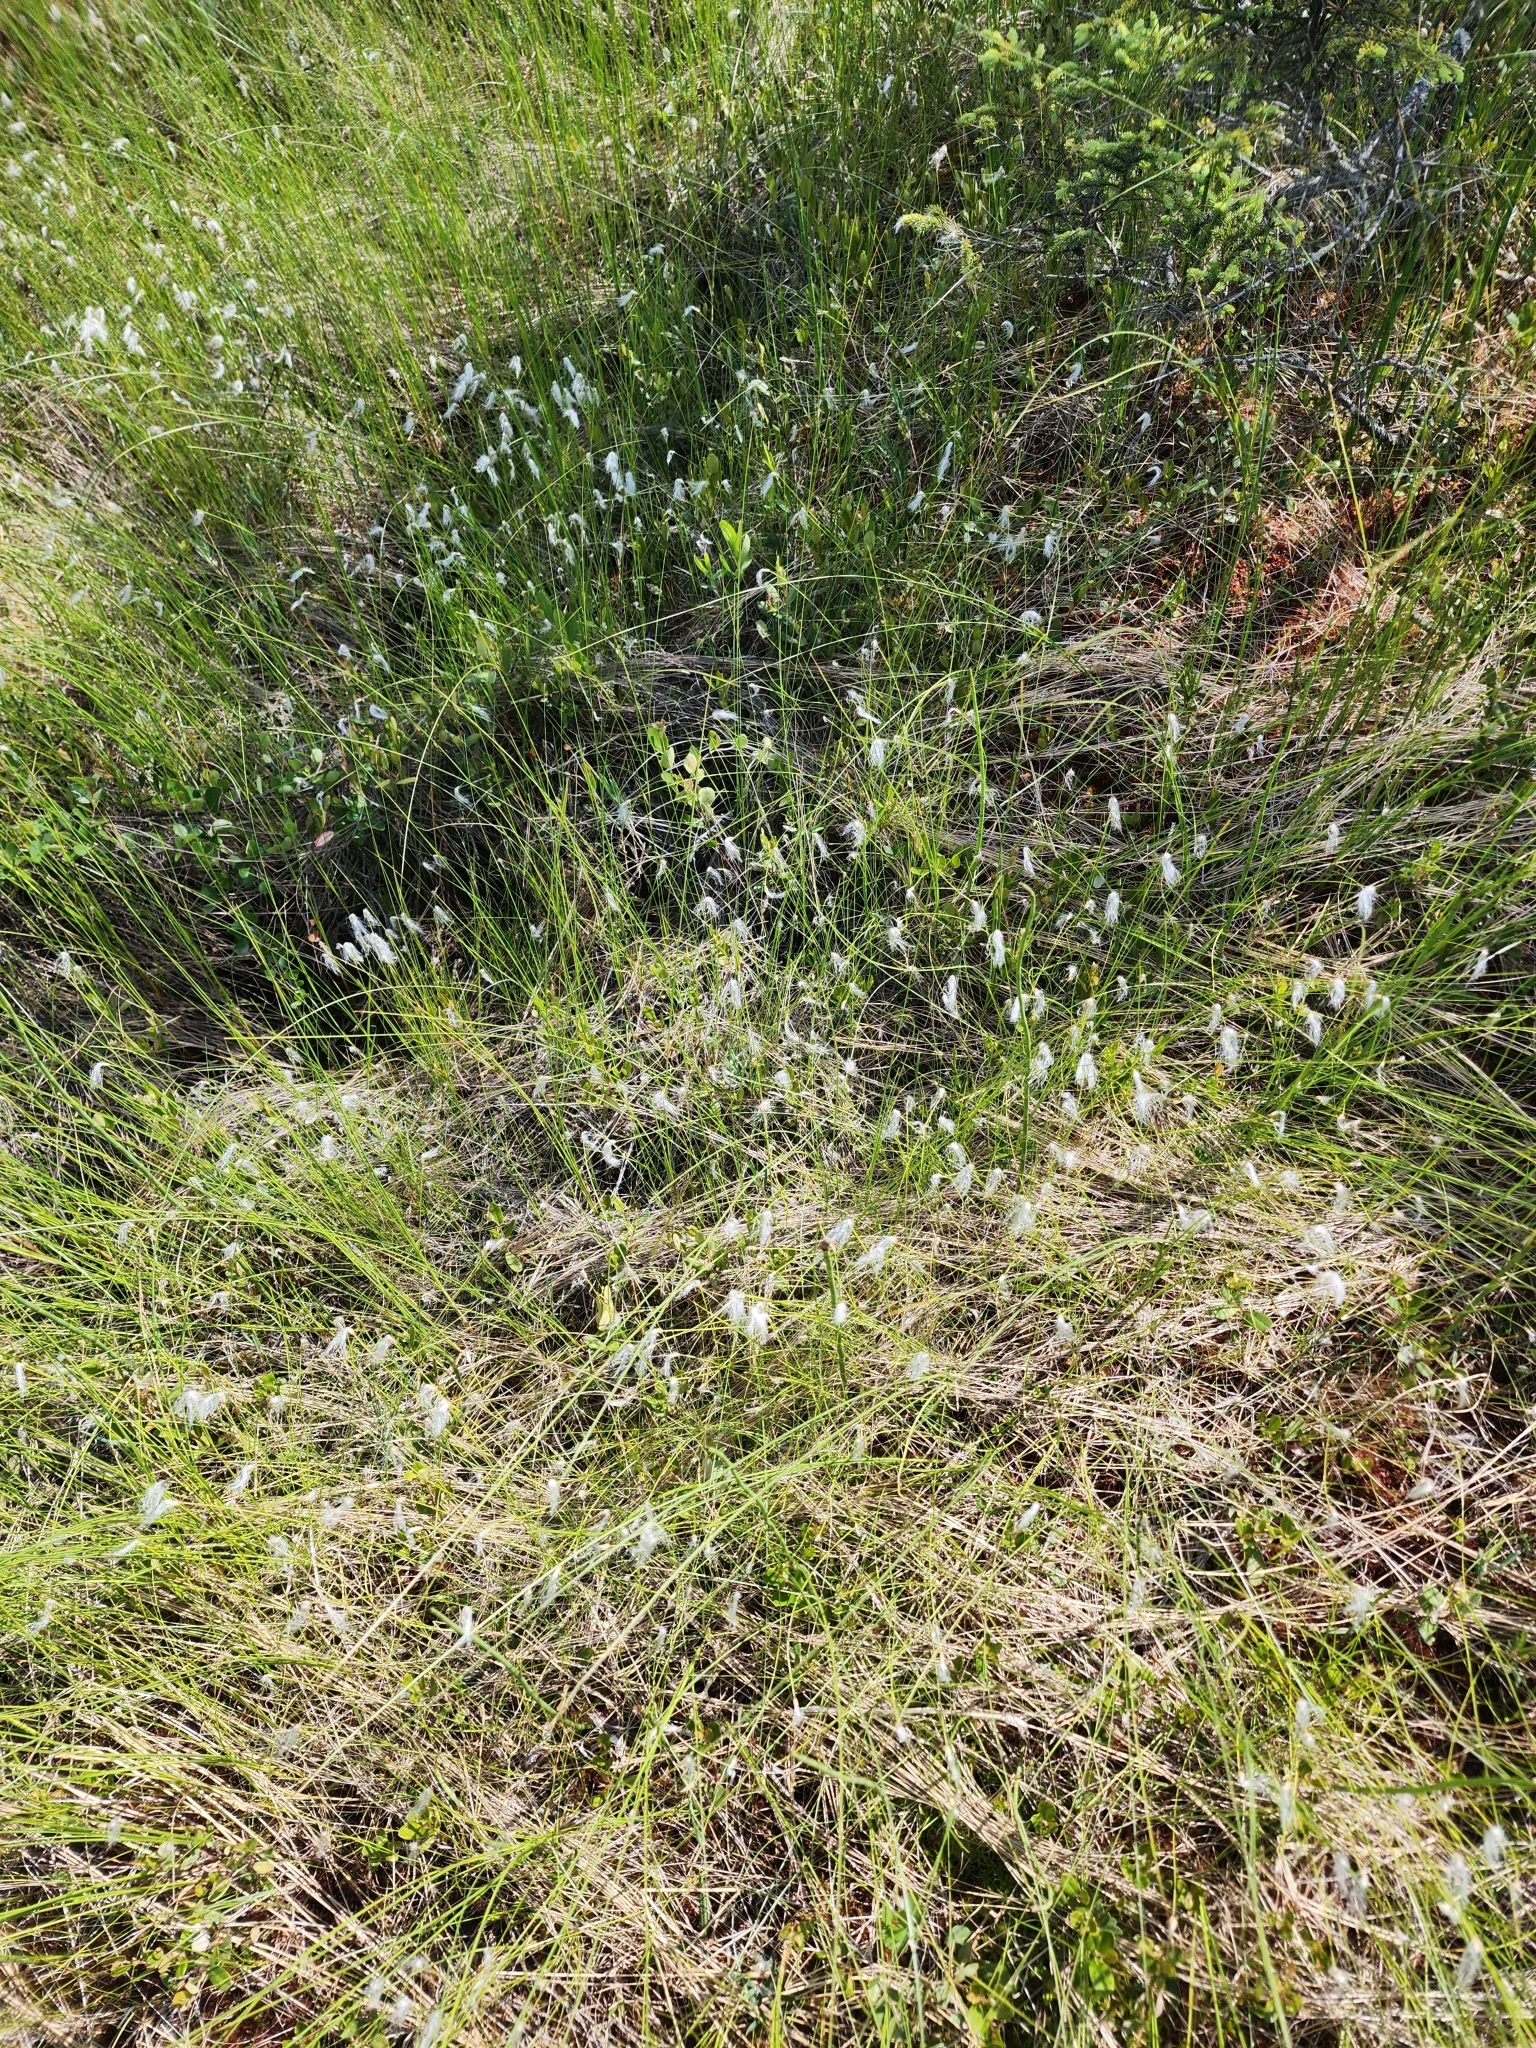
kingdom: Plantae
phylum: Tracheophyta
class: Liliopsida
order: Poales
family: Cyperaceae
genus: Trichophorum
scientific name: Trichophorum alpinum
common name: Alpine bulrush
